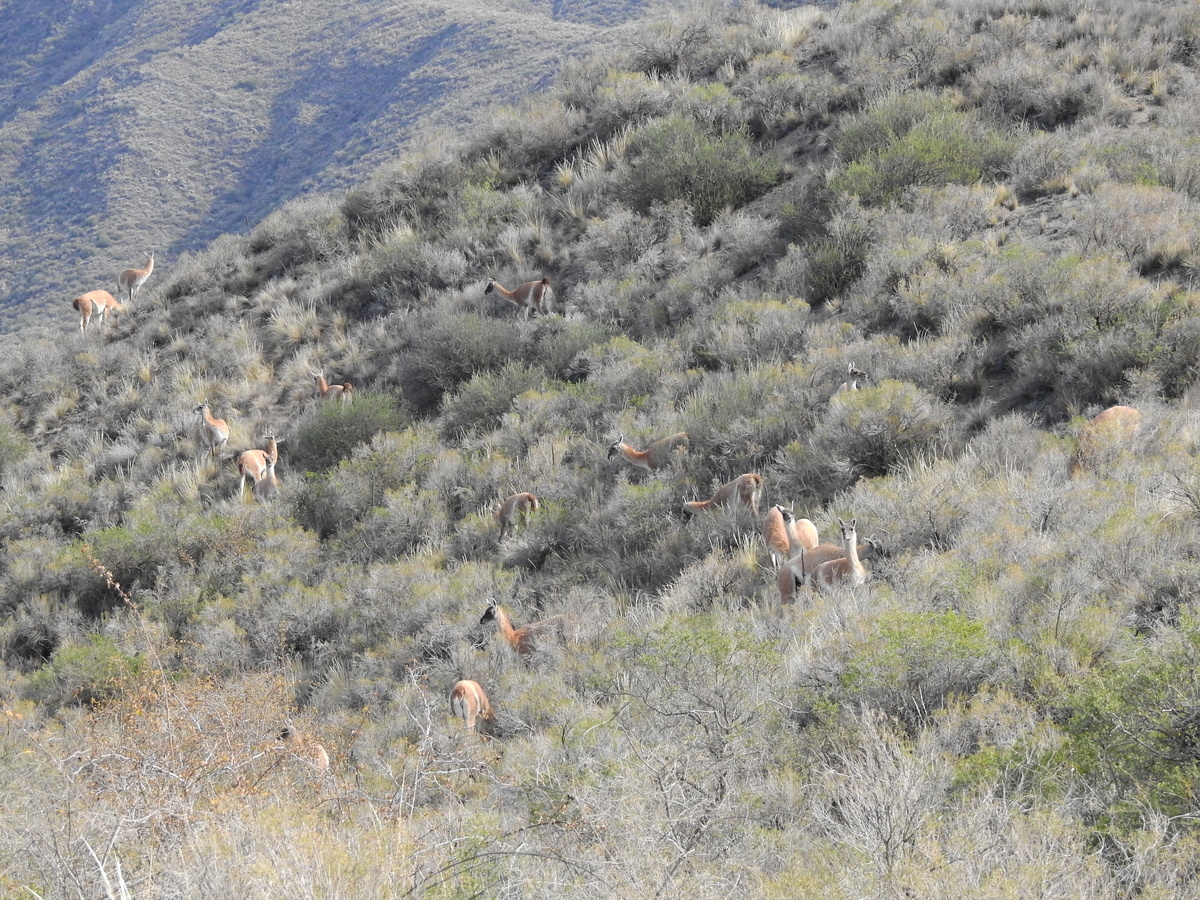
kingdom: Animalia
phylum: Chordata
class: Mammalia
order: Artiodactyla
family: Camelidae
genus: Lama
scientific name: Lama glama
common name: Llama
